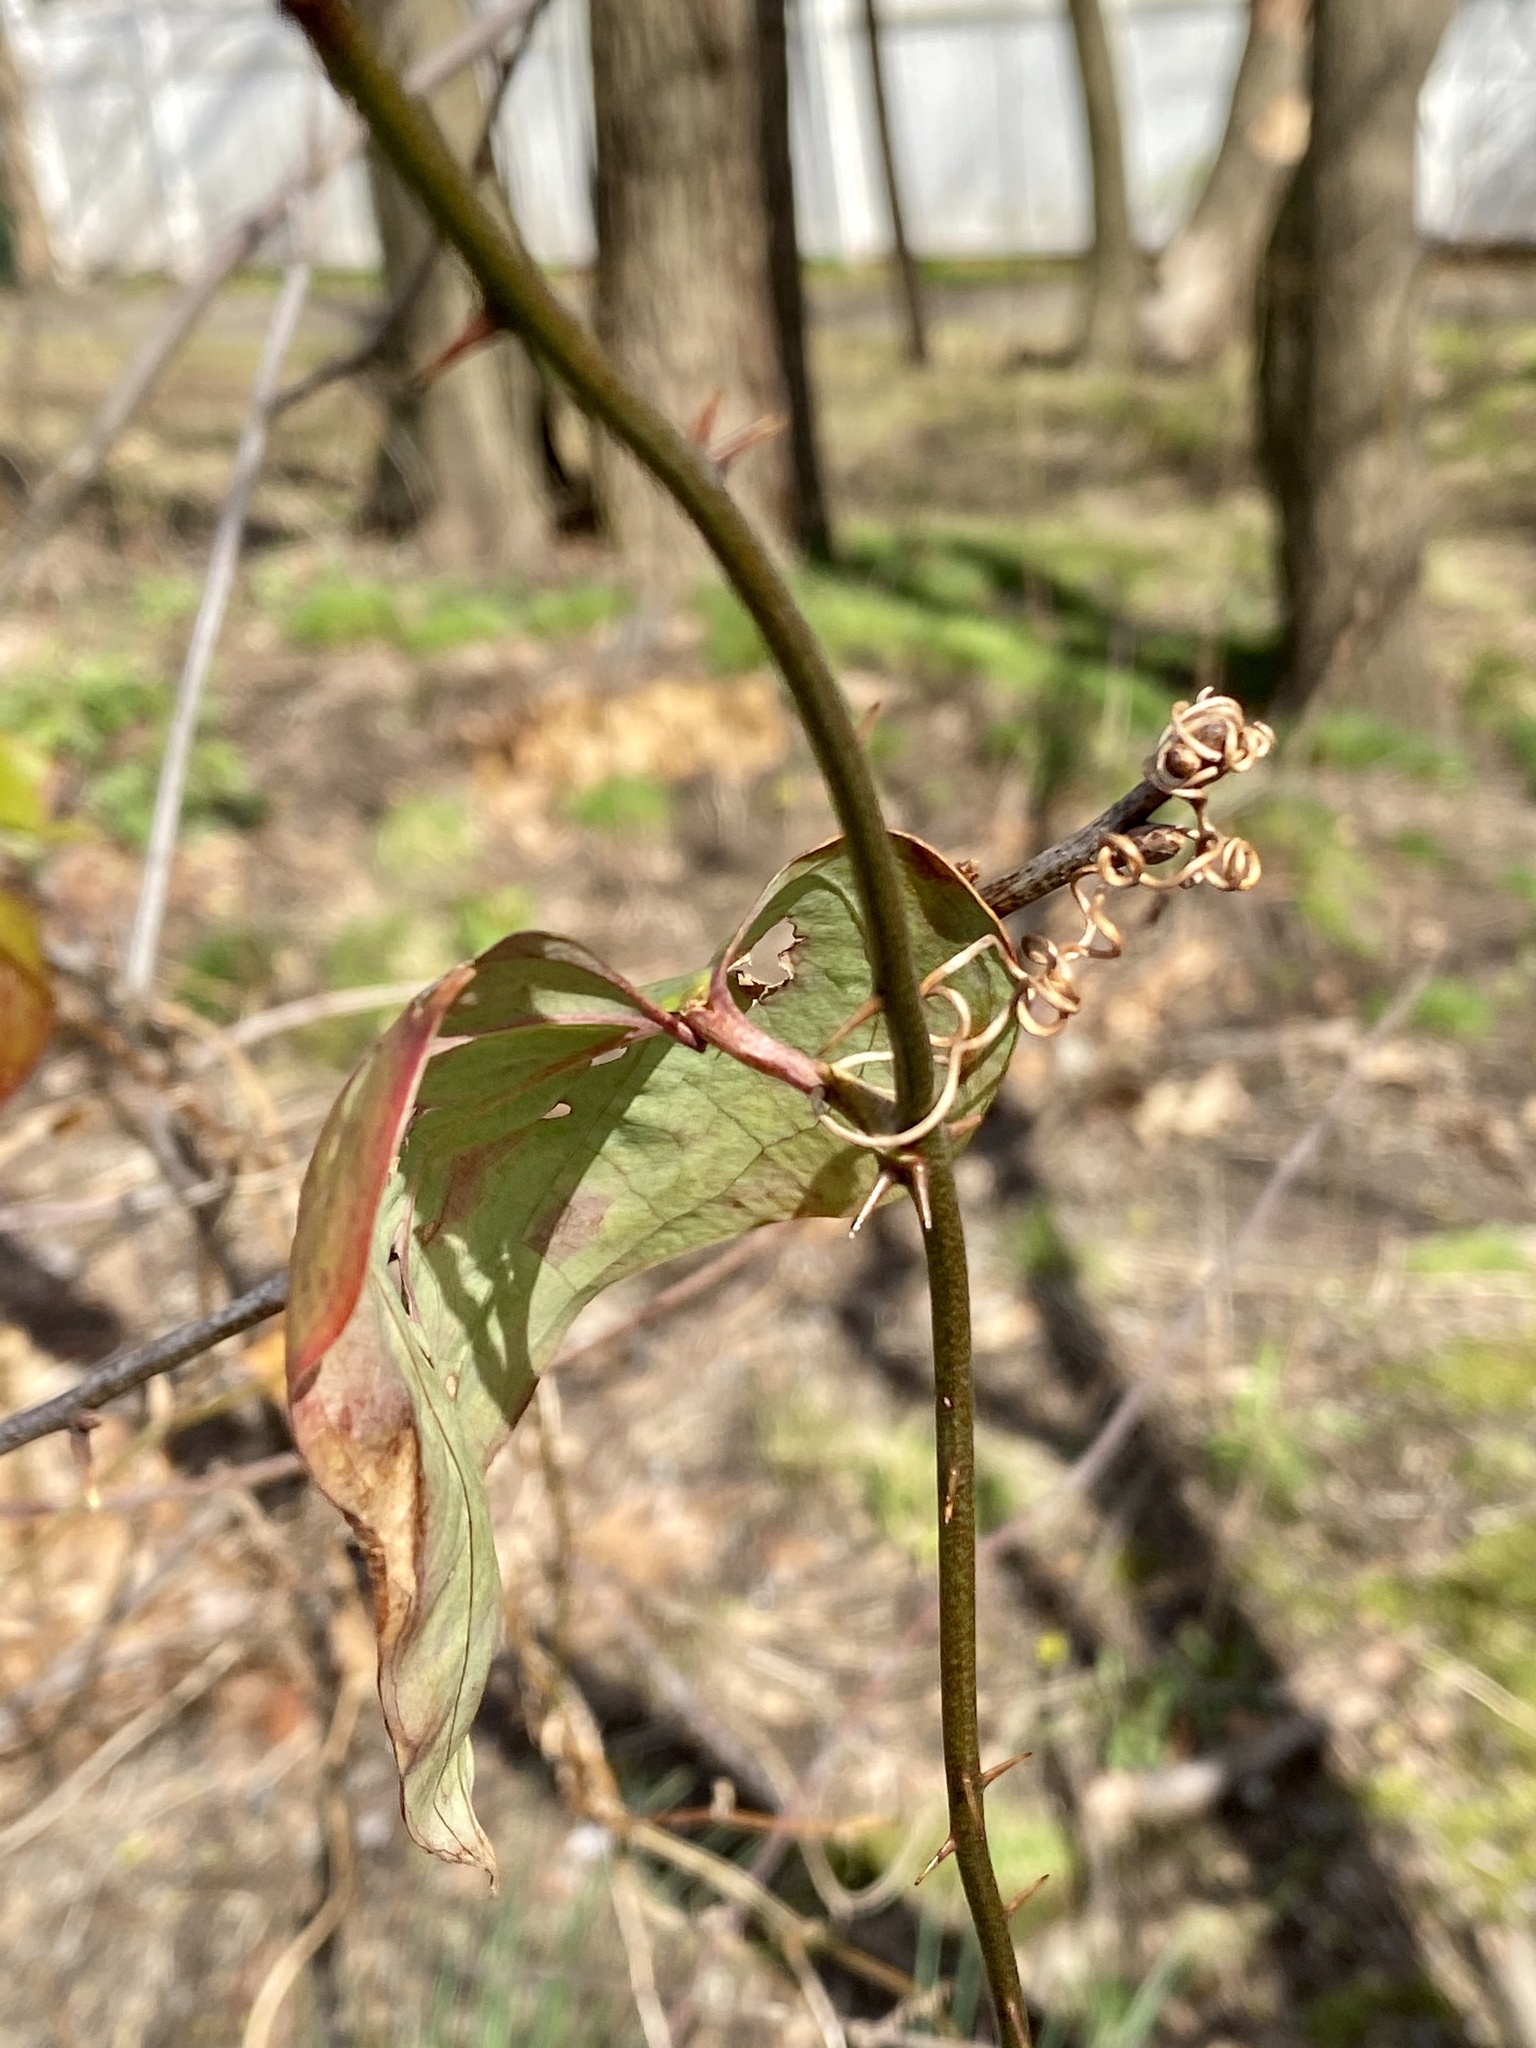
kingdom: Plantae
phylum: Tracheophyta
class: Liliopsida
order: Liliales
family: Smilacaceae
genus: Smilax
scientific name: Smilax glauca
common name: Cat greenbrier
